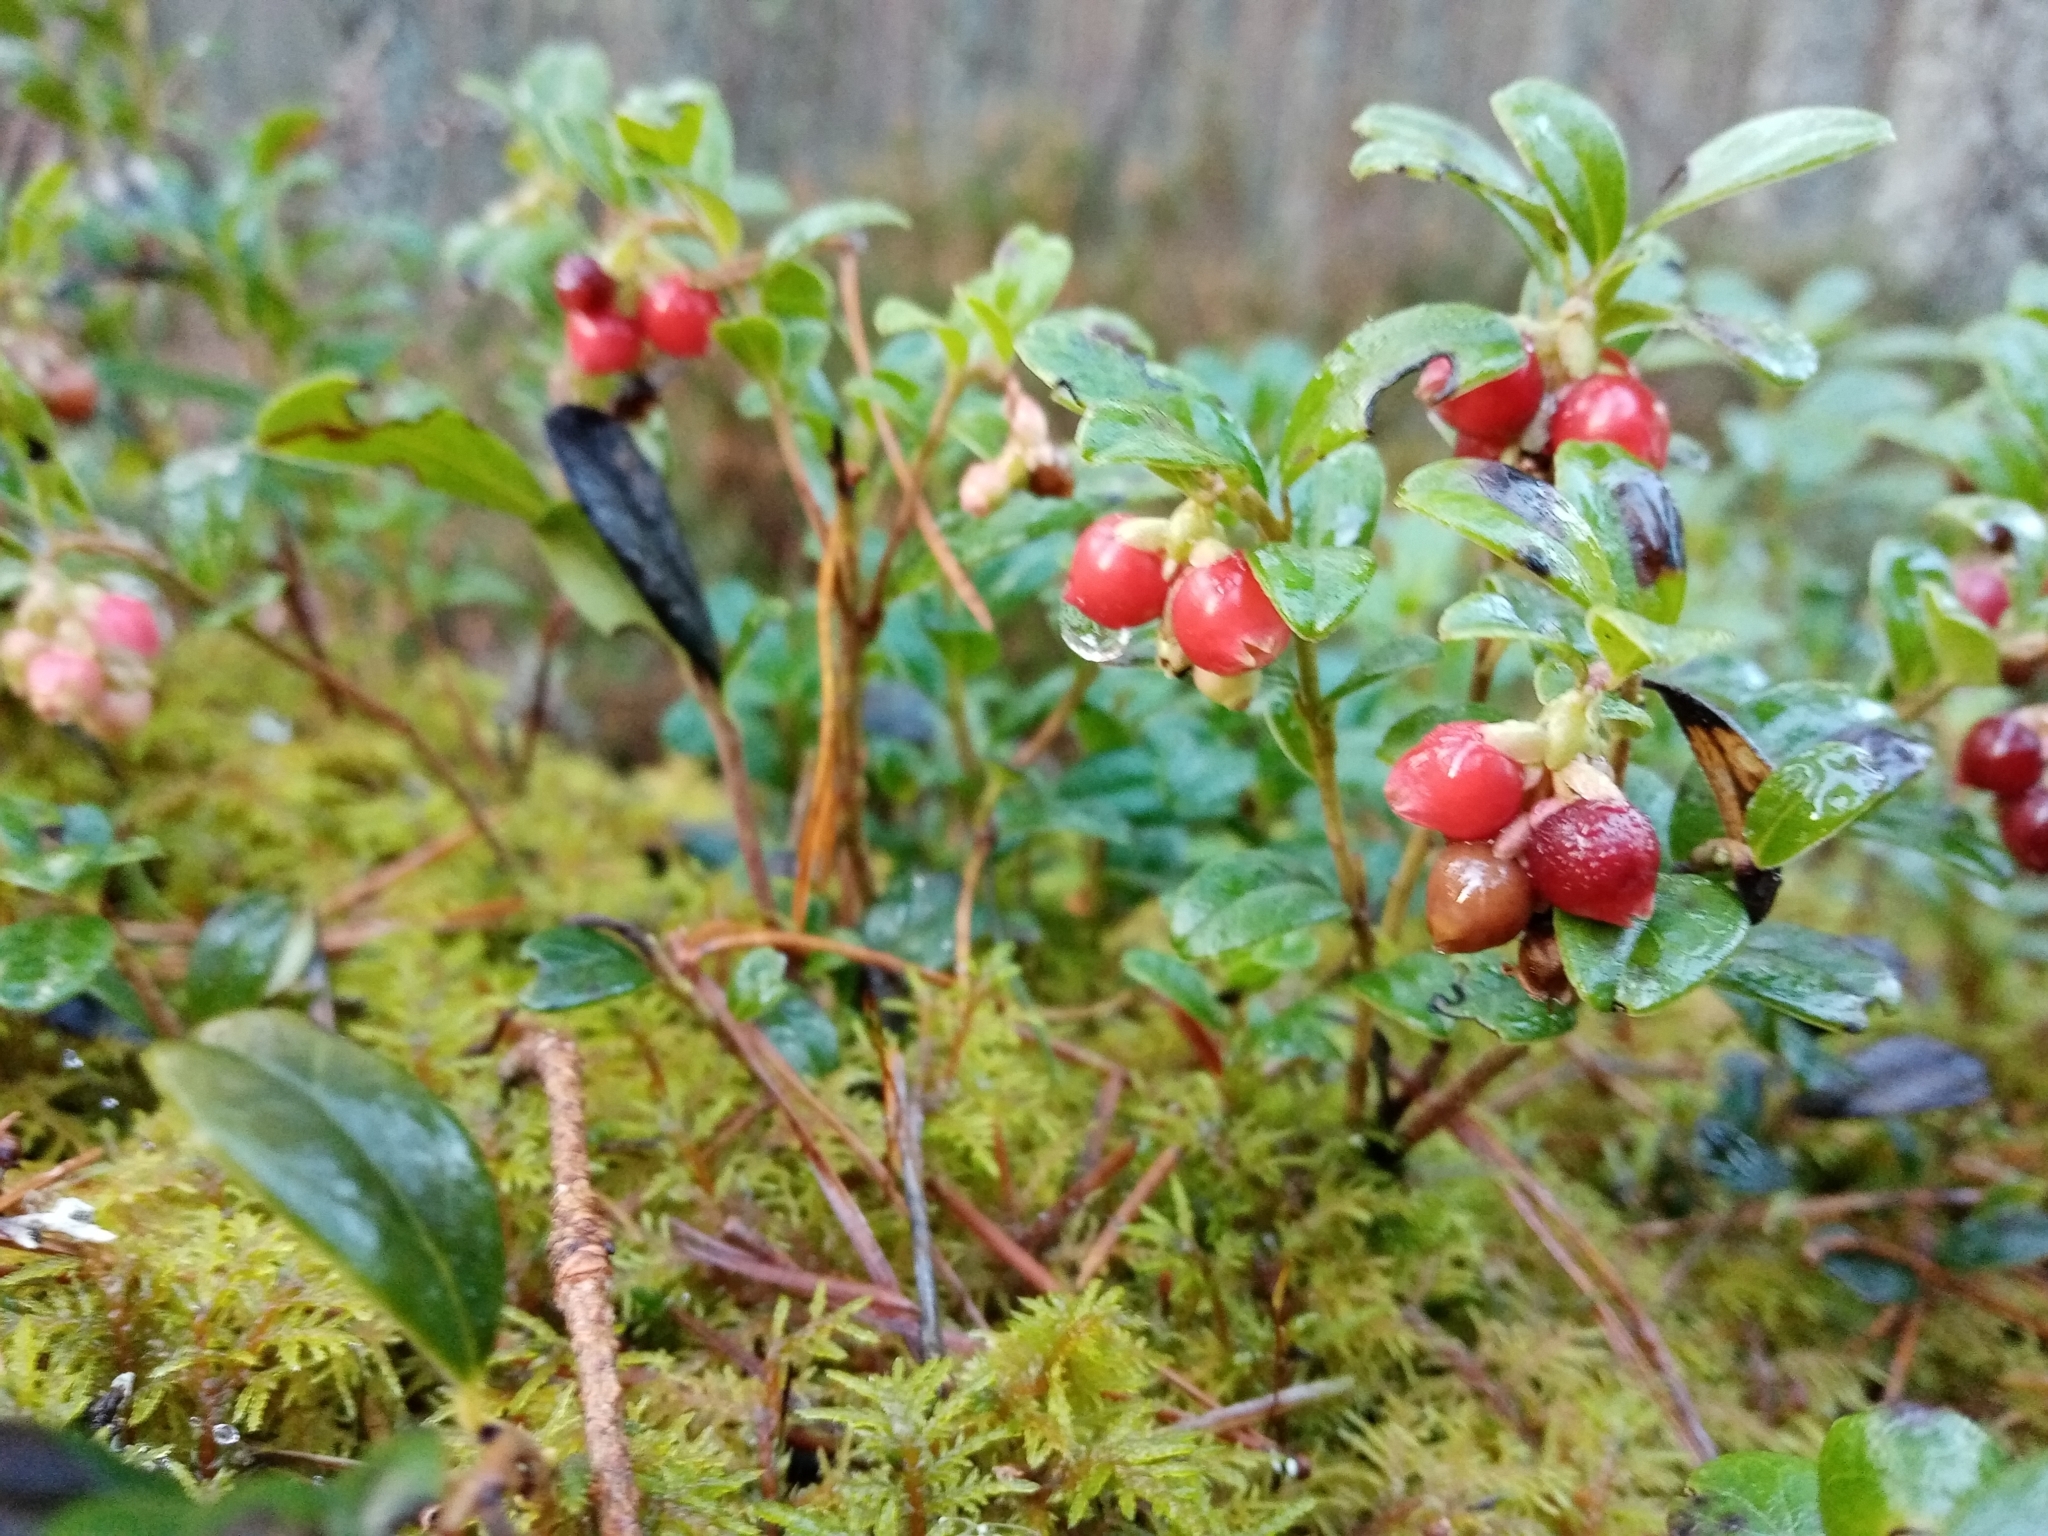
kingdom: Plantae
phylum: Tracheophyta
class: Magnoliopsida
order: Ericales
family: Ericaceae
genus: Vaccinium
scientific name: Vaccinium vitis-idaea
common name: Cowberry
